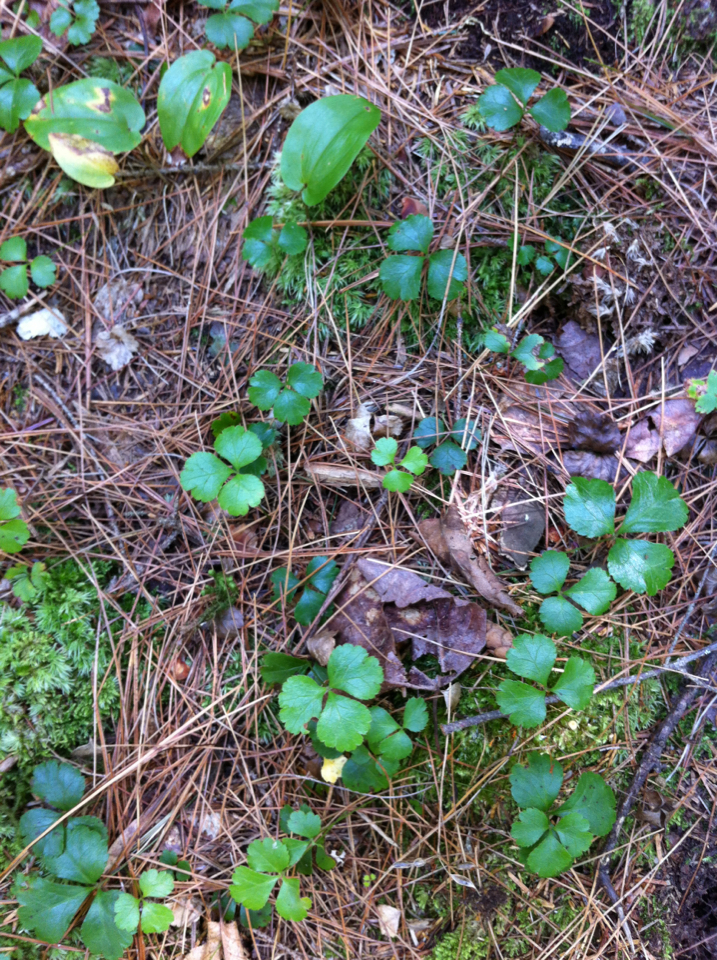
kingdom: Plantae
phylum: Tracheophyta
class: Magnoliopsida
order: Ranunculales
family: Ranunculaceae
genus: Coptis
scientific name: Coptis trifolia
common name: Canker-root
